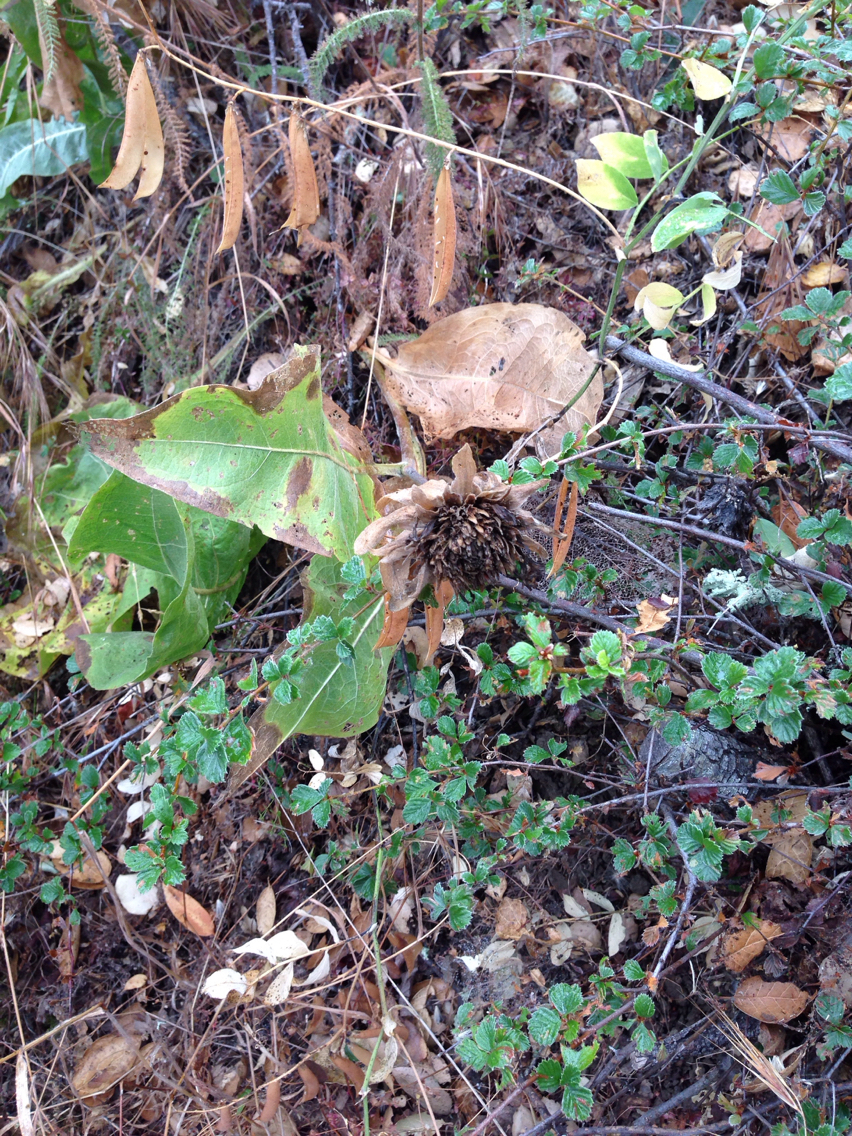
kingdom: Plantae
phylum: Tracheophyta
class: Magnoliopsida
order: Asterales
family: Asteraceae
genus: Wyethia
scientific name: Wyethia helenioides
